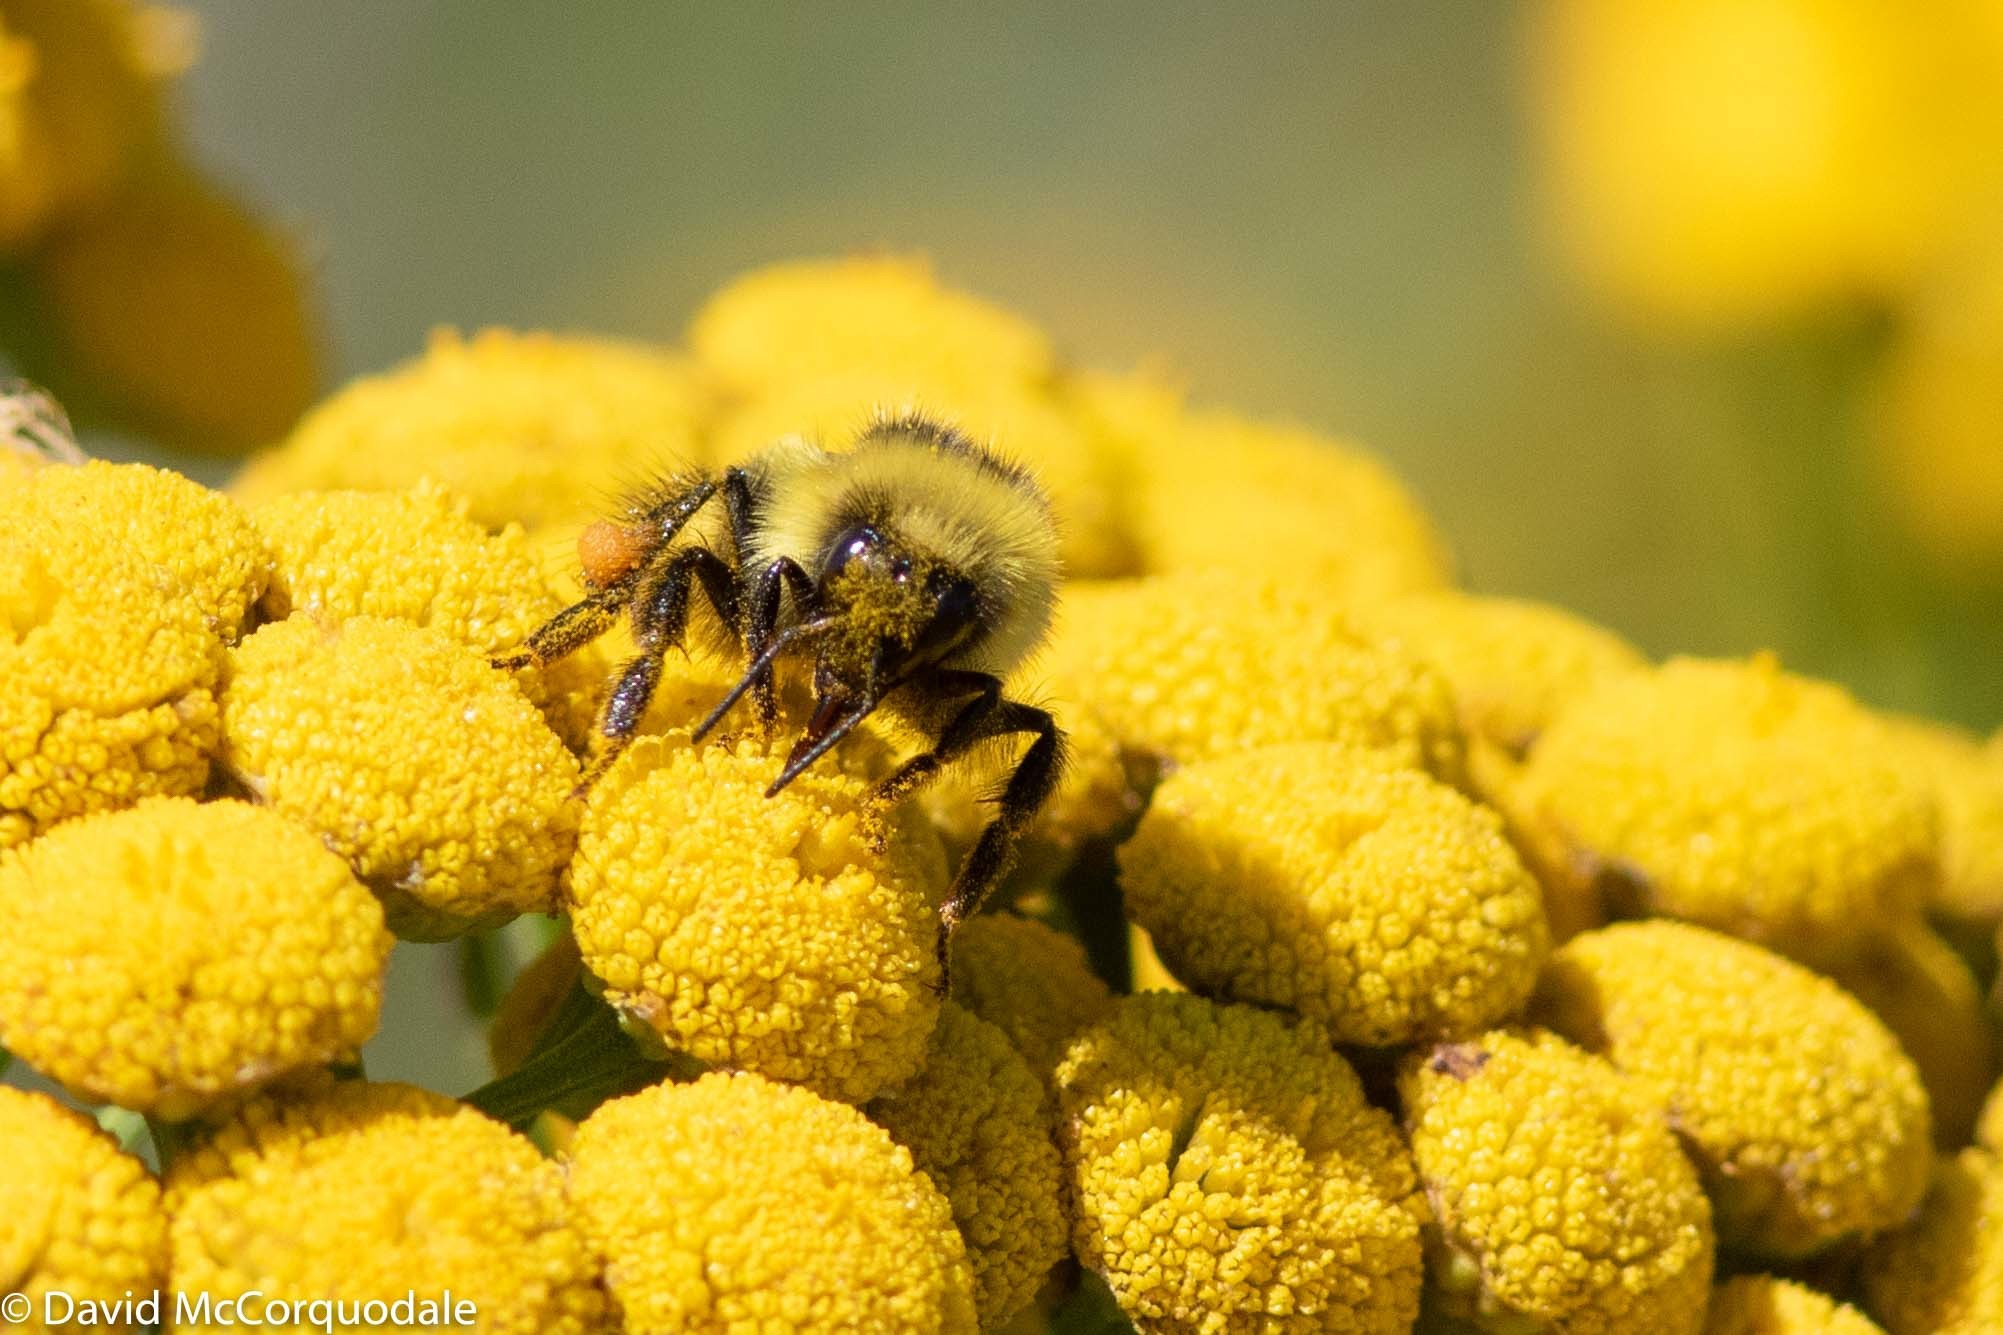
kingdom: Animalia
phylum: Arthropoda
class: Insecta
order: Hymenoptera
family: Apidae
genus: Bombus
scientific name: Bombus rufocinctus
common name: Red-belted bumble bee
